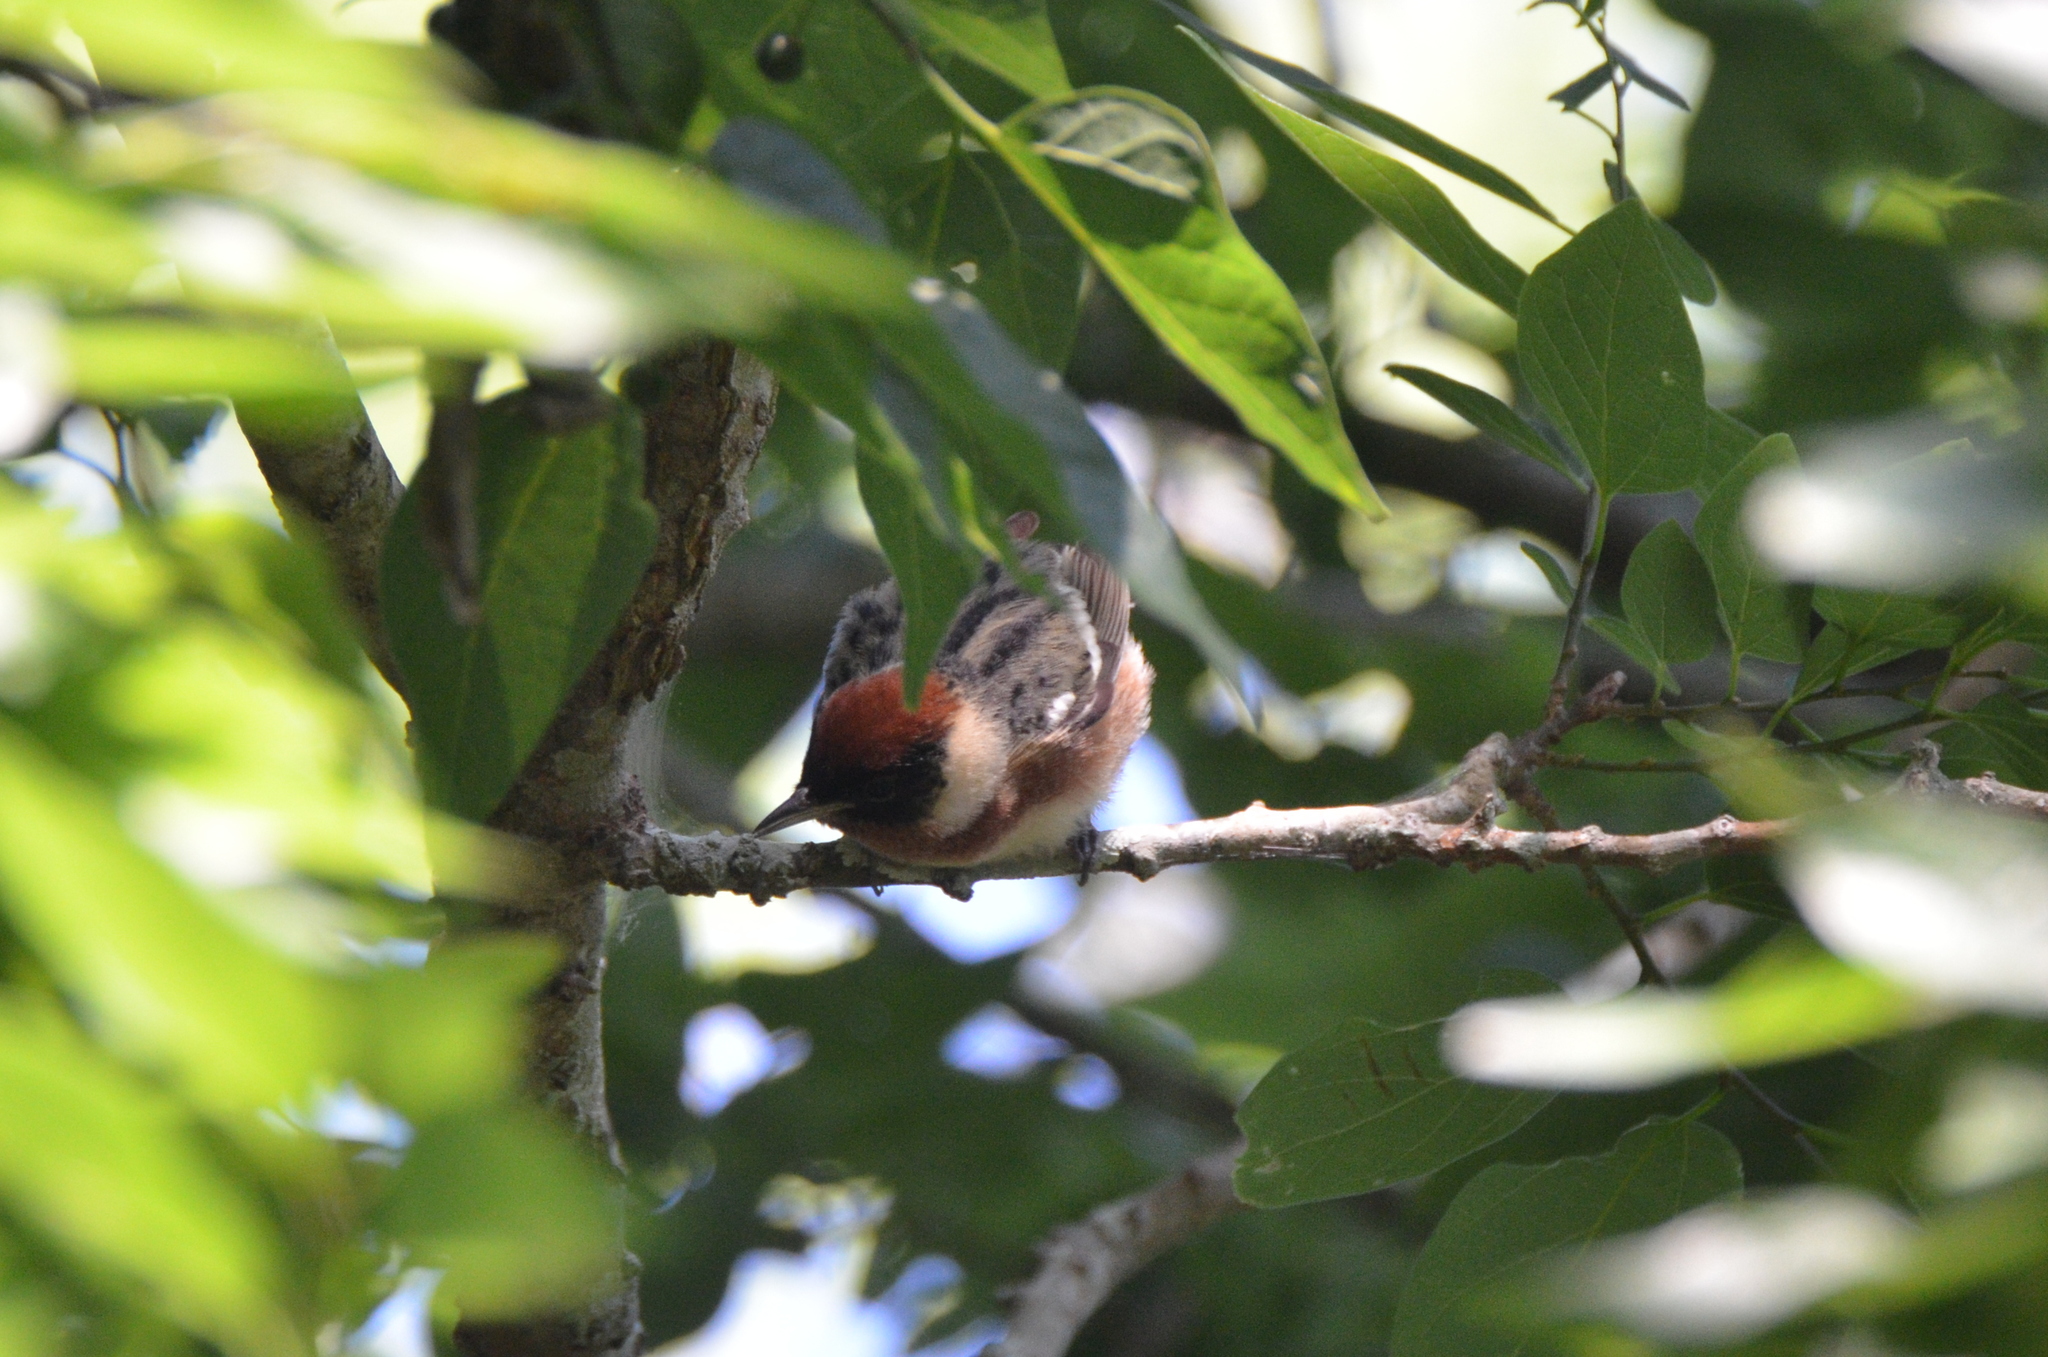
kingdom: Animalia
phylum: Chordata
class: Aves
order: Passeriformes
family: Parulidae
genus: Setophaga
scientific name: Setophaga castanea
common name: Bay-breasted warbler
